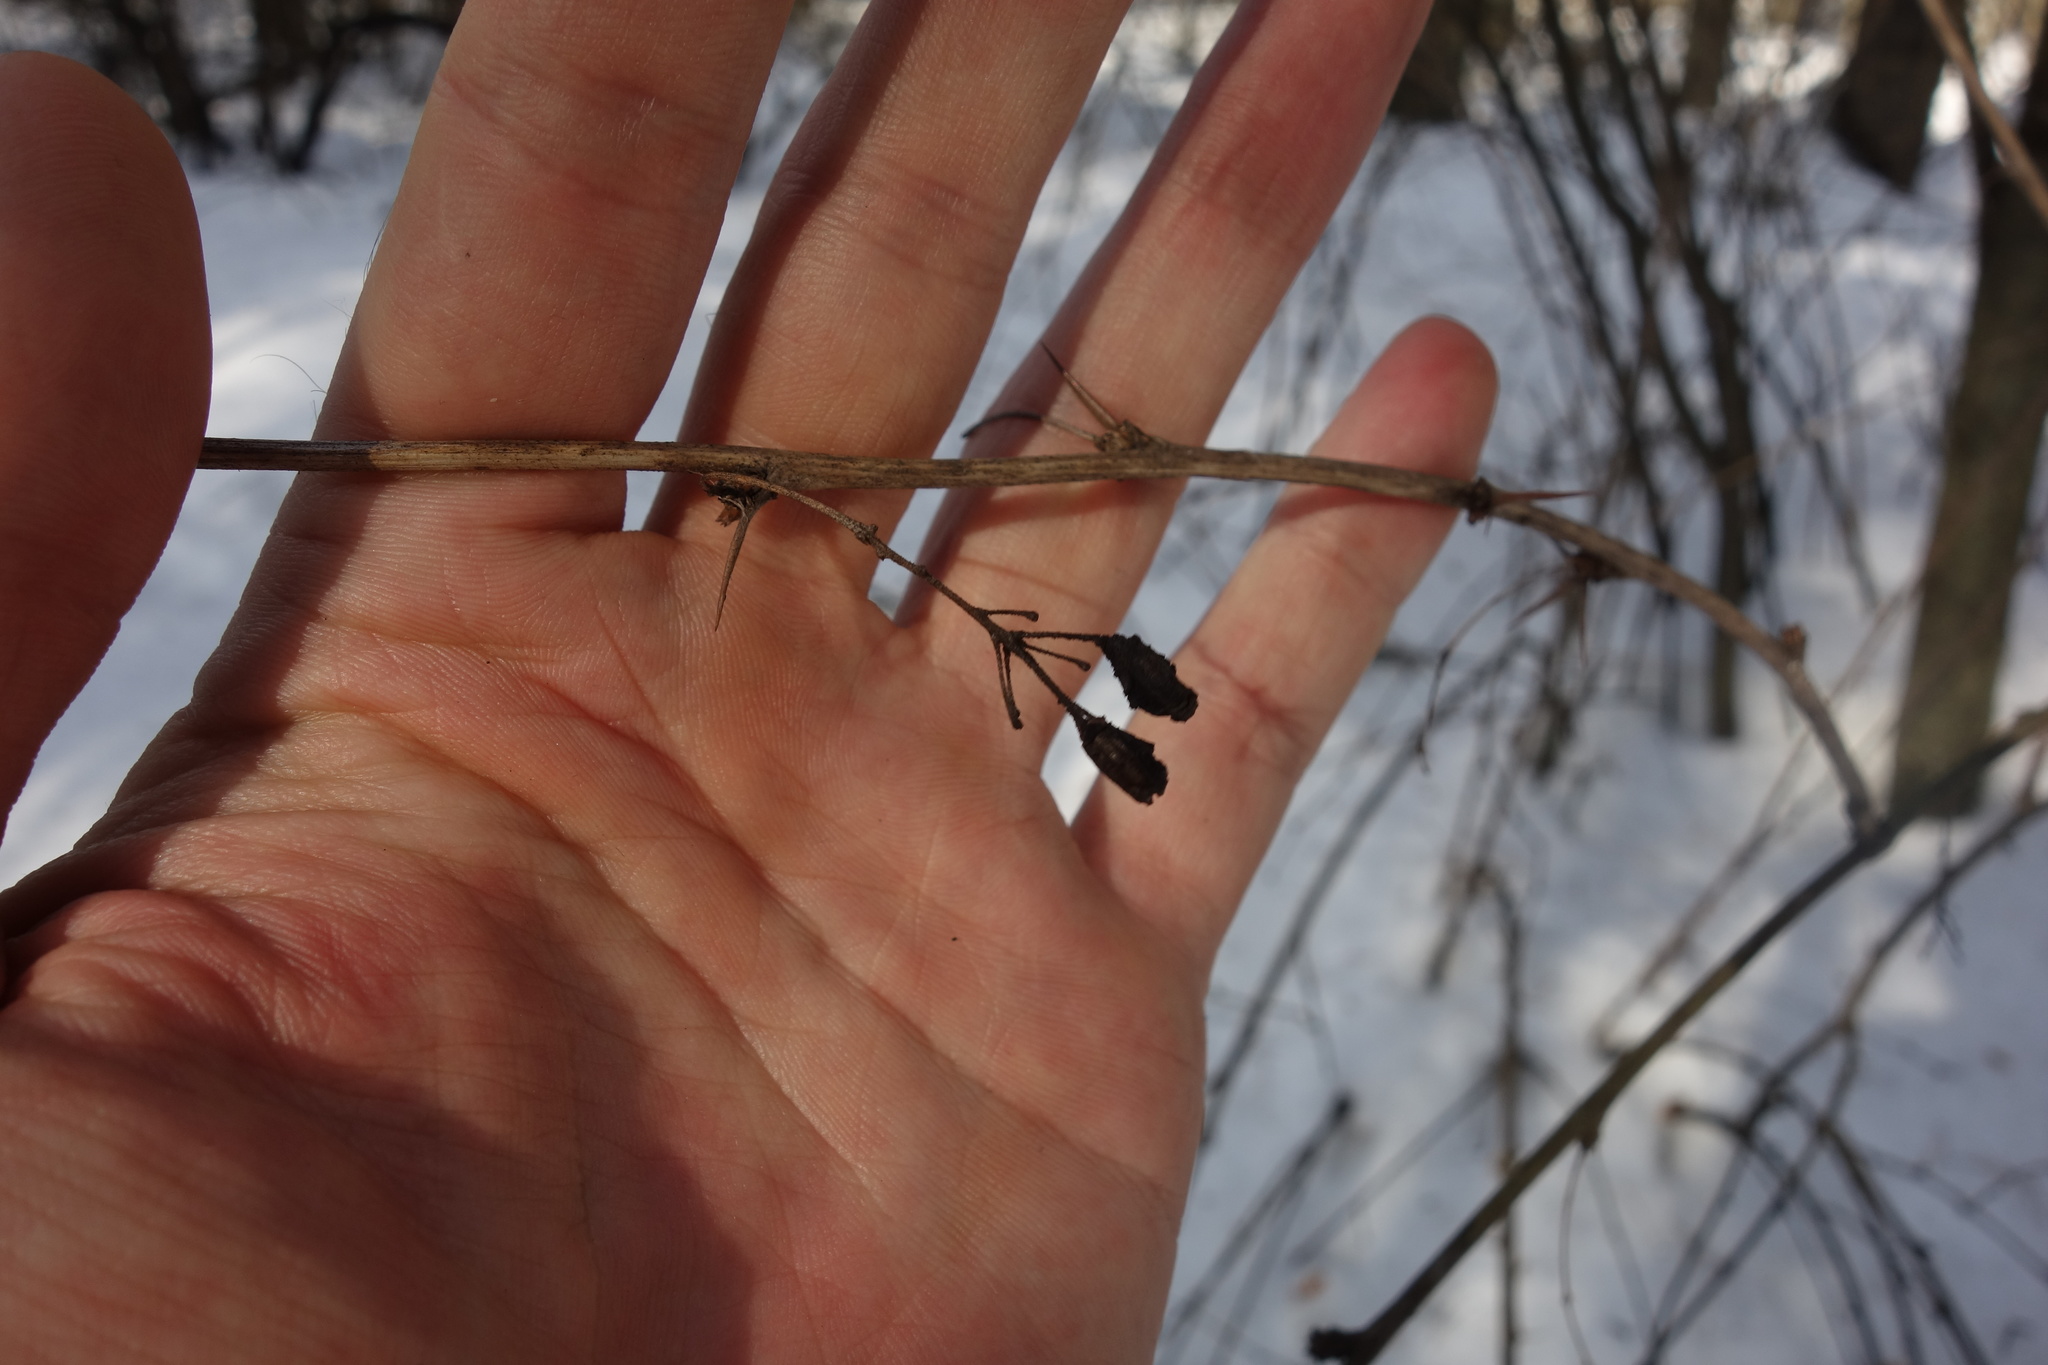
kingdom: Plantae
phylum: Tracheophyta
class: Magnoliopsida
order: Ranunculales
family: Berberidaceae
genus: Berberis
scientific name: Berberis vulgaris
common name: Barberry
